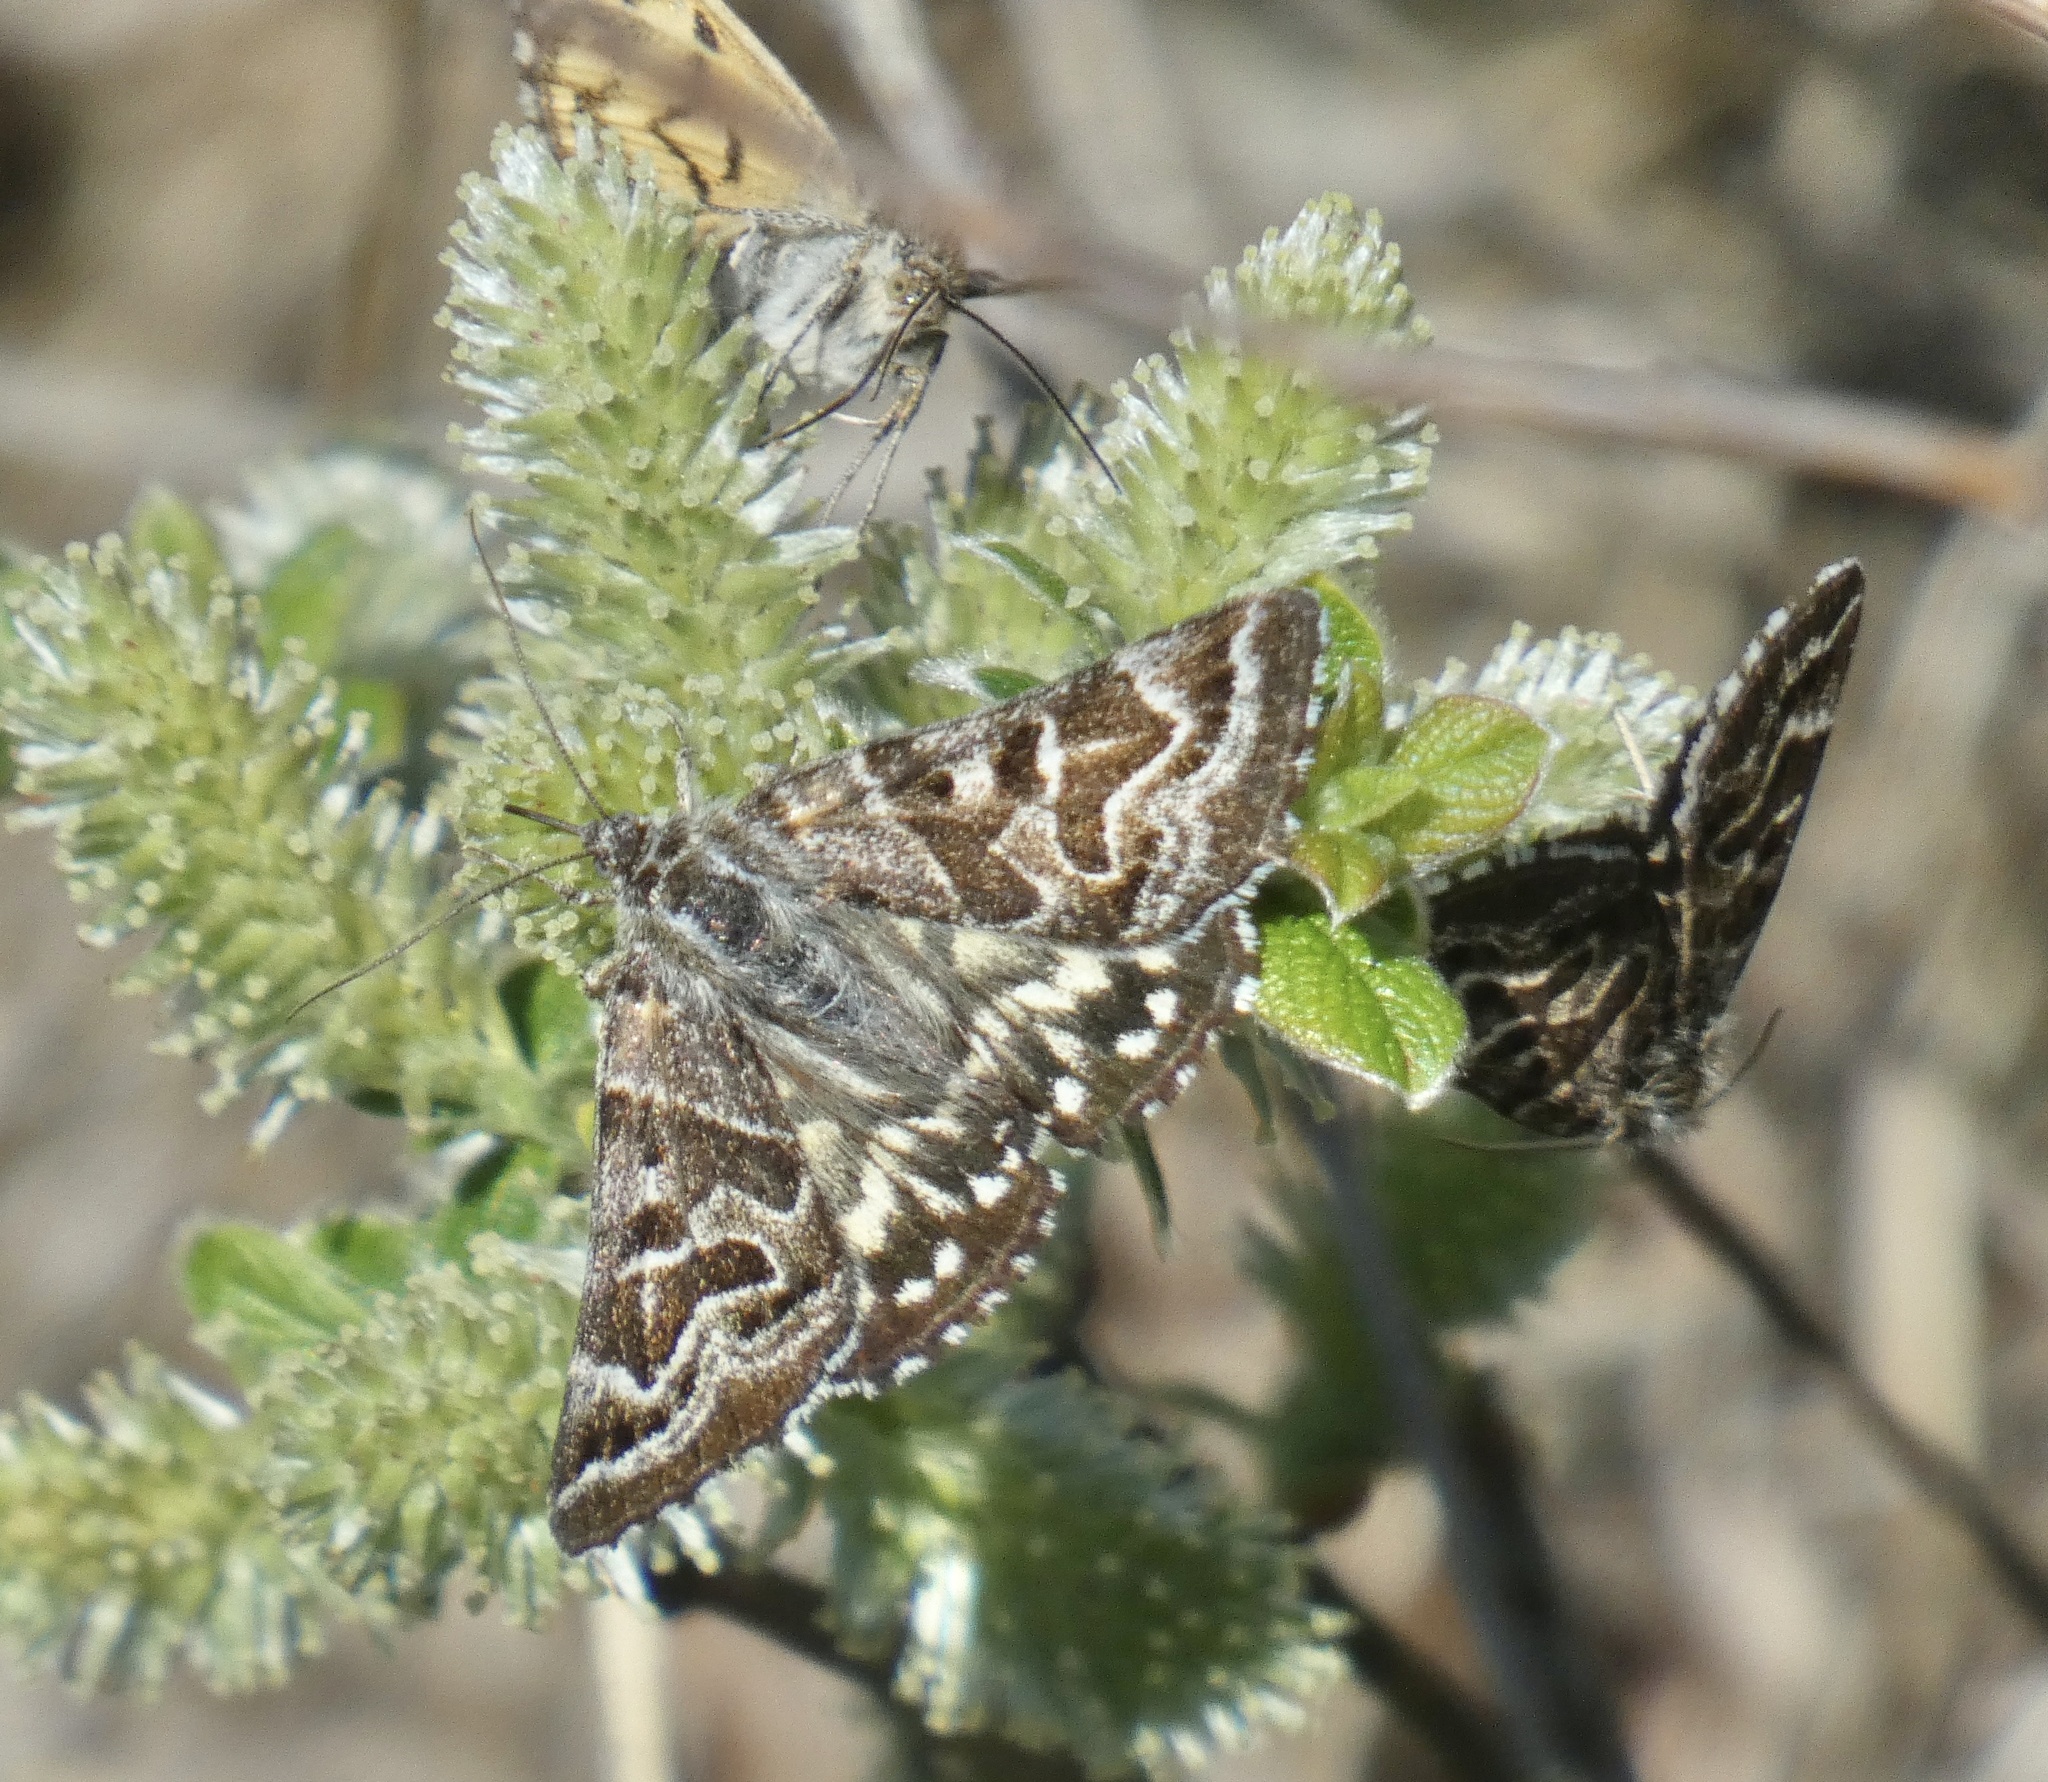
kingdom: Animalia
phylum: Arthropoda
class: Insecta
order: Lepidoptera
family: Erebidae
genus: Callistege
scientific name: Callistege mi
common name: Mother shipton
